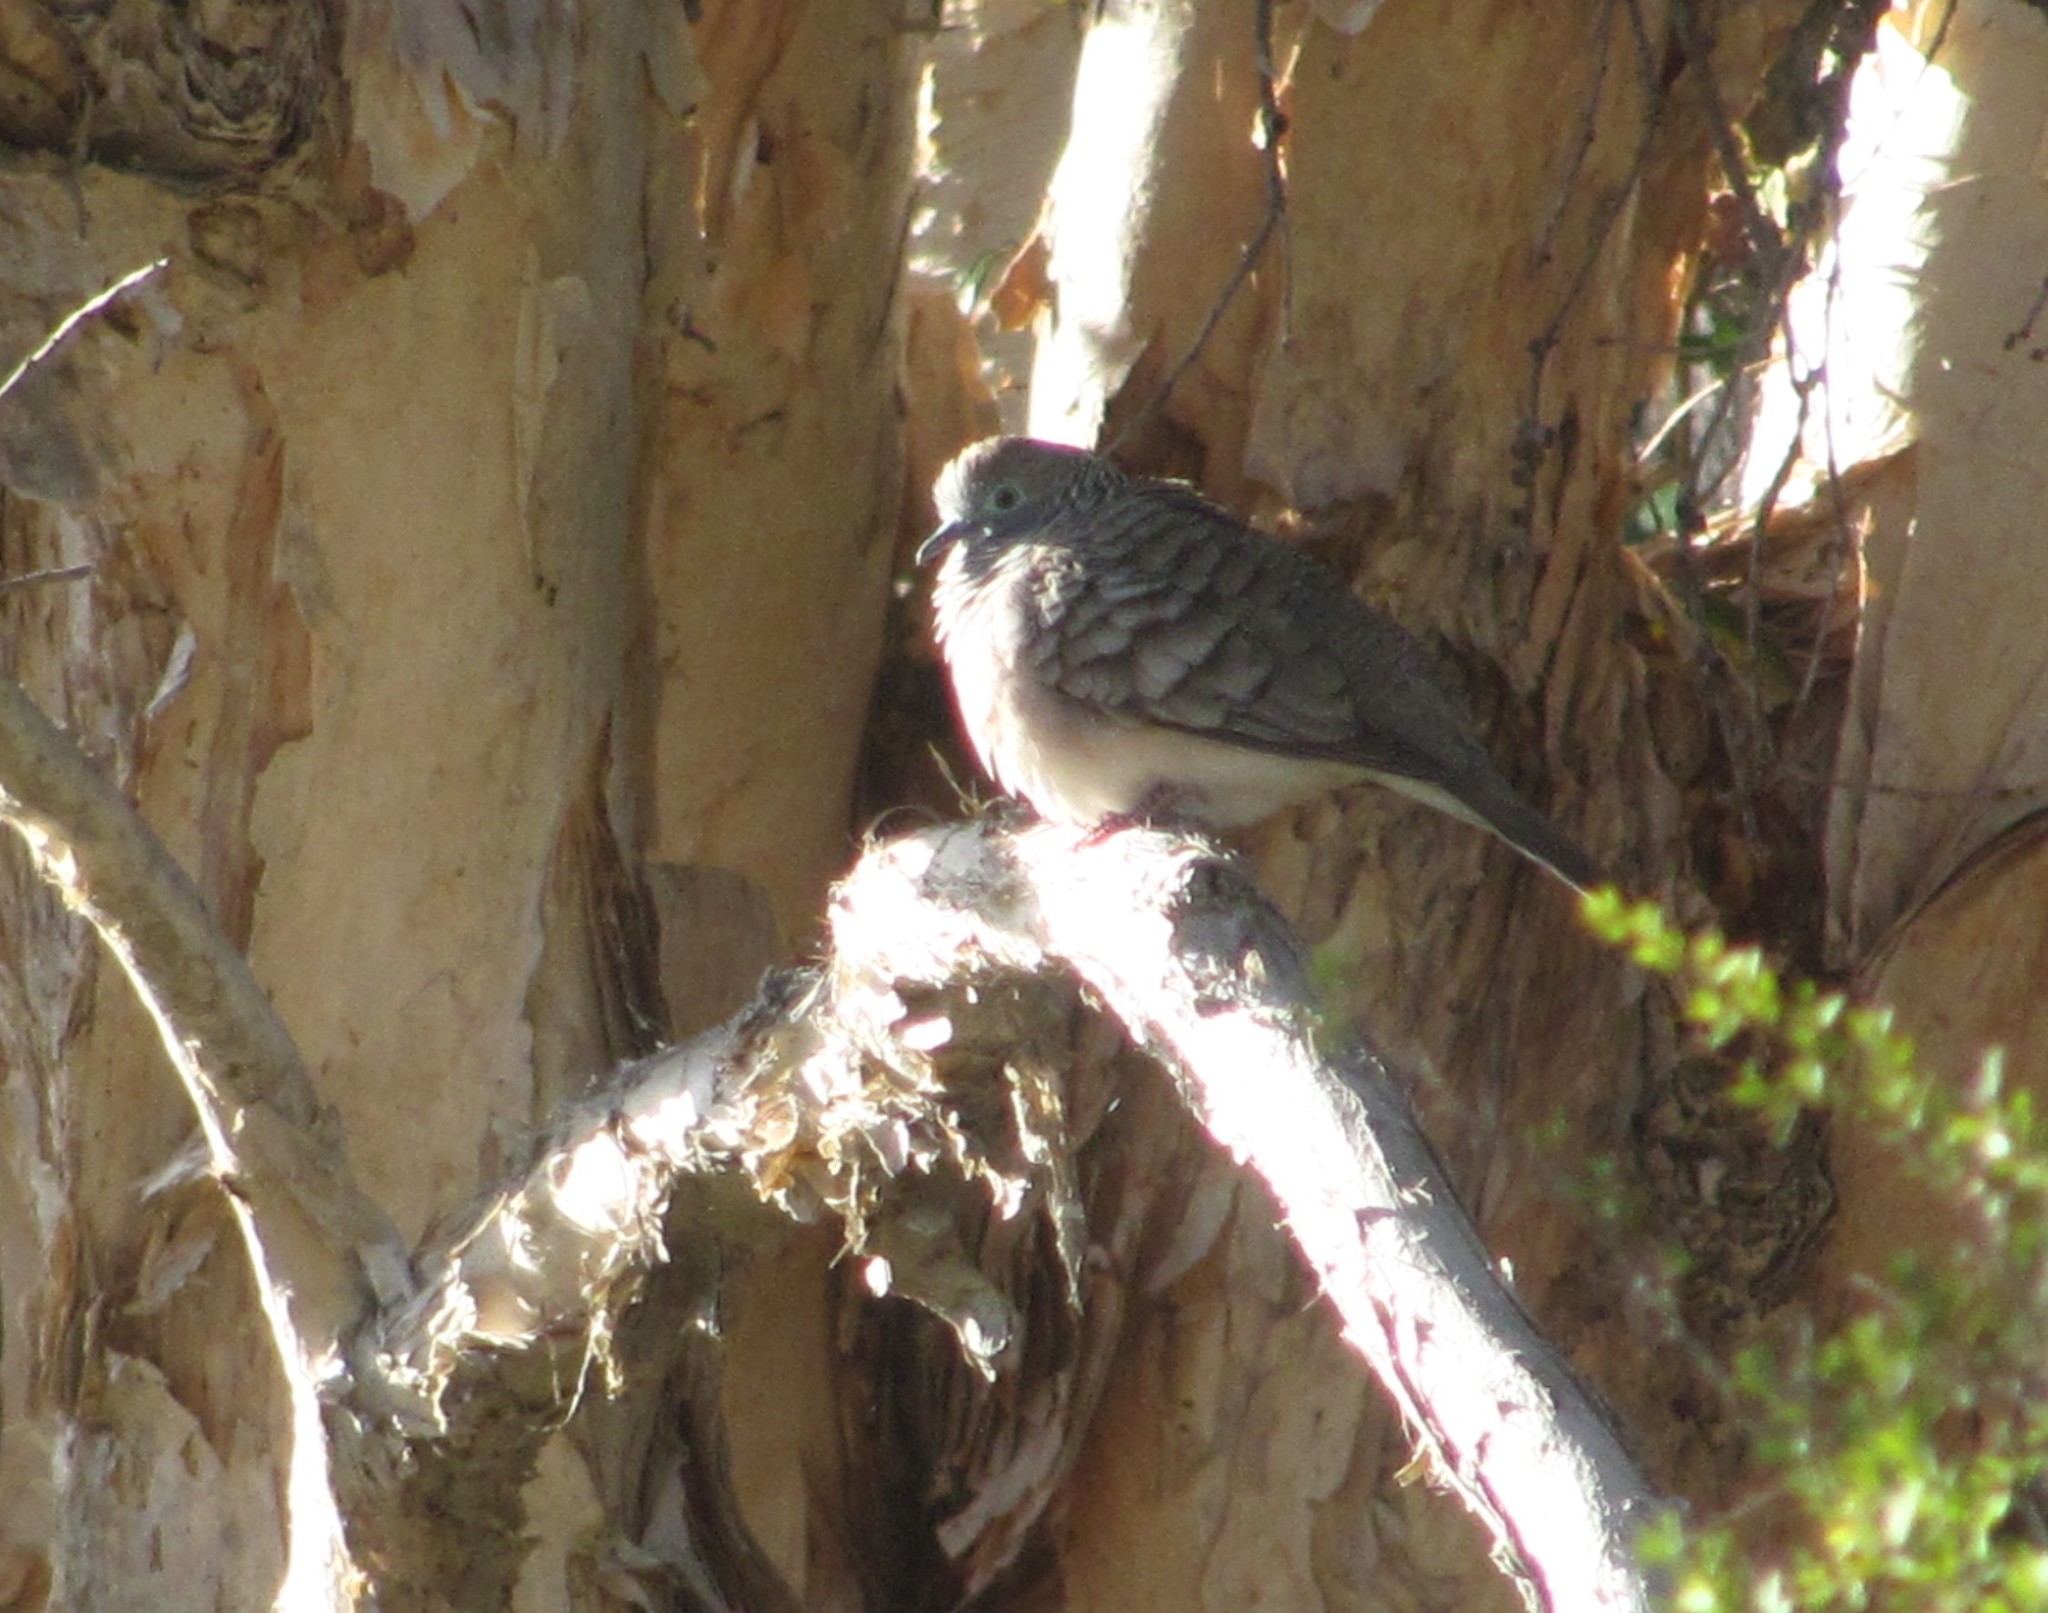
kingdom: Animalia
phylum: Chordata
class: Aves
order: Columbiformes
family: Columbidae
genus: Geopelia
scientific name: Geopelia placida
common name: Peaceful dove
